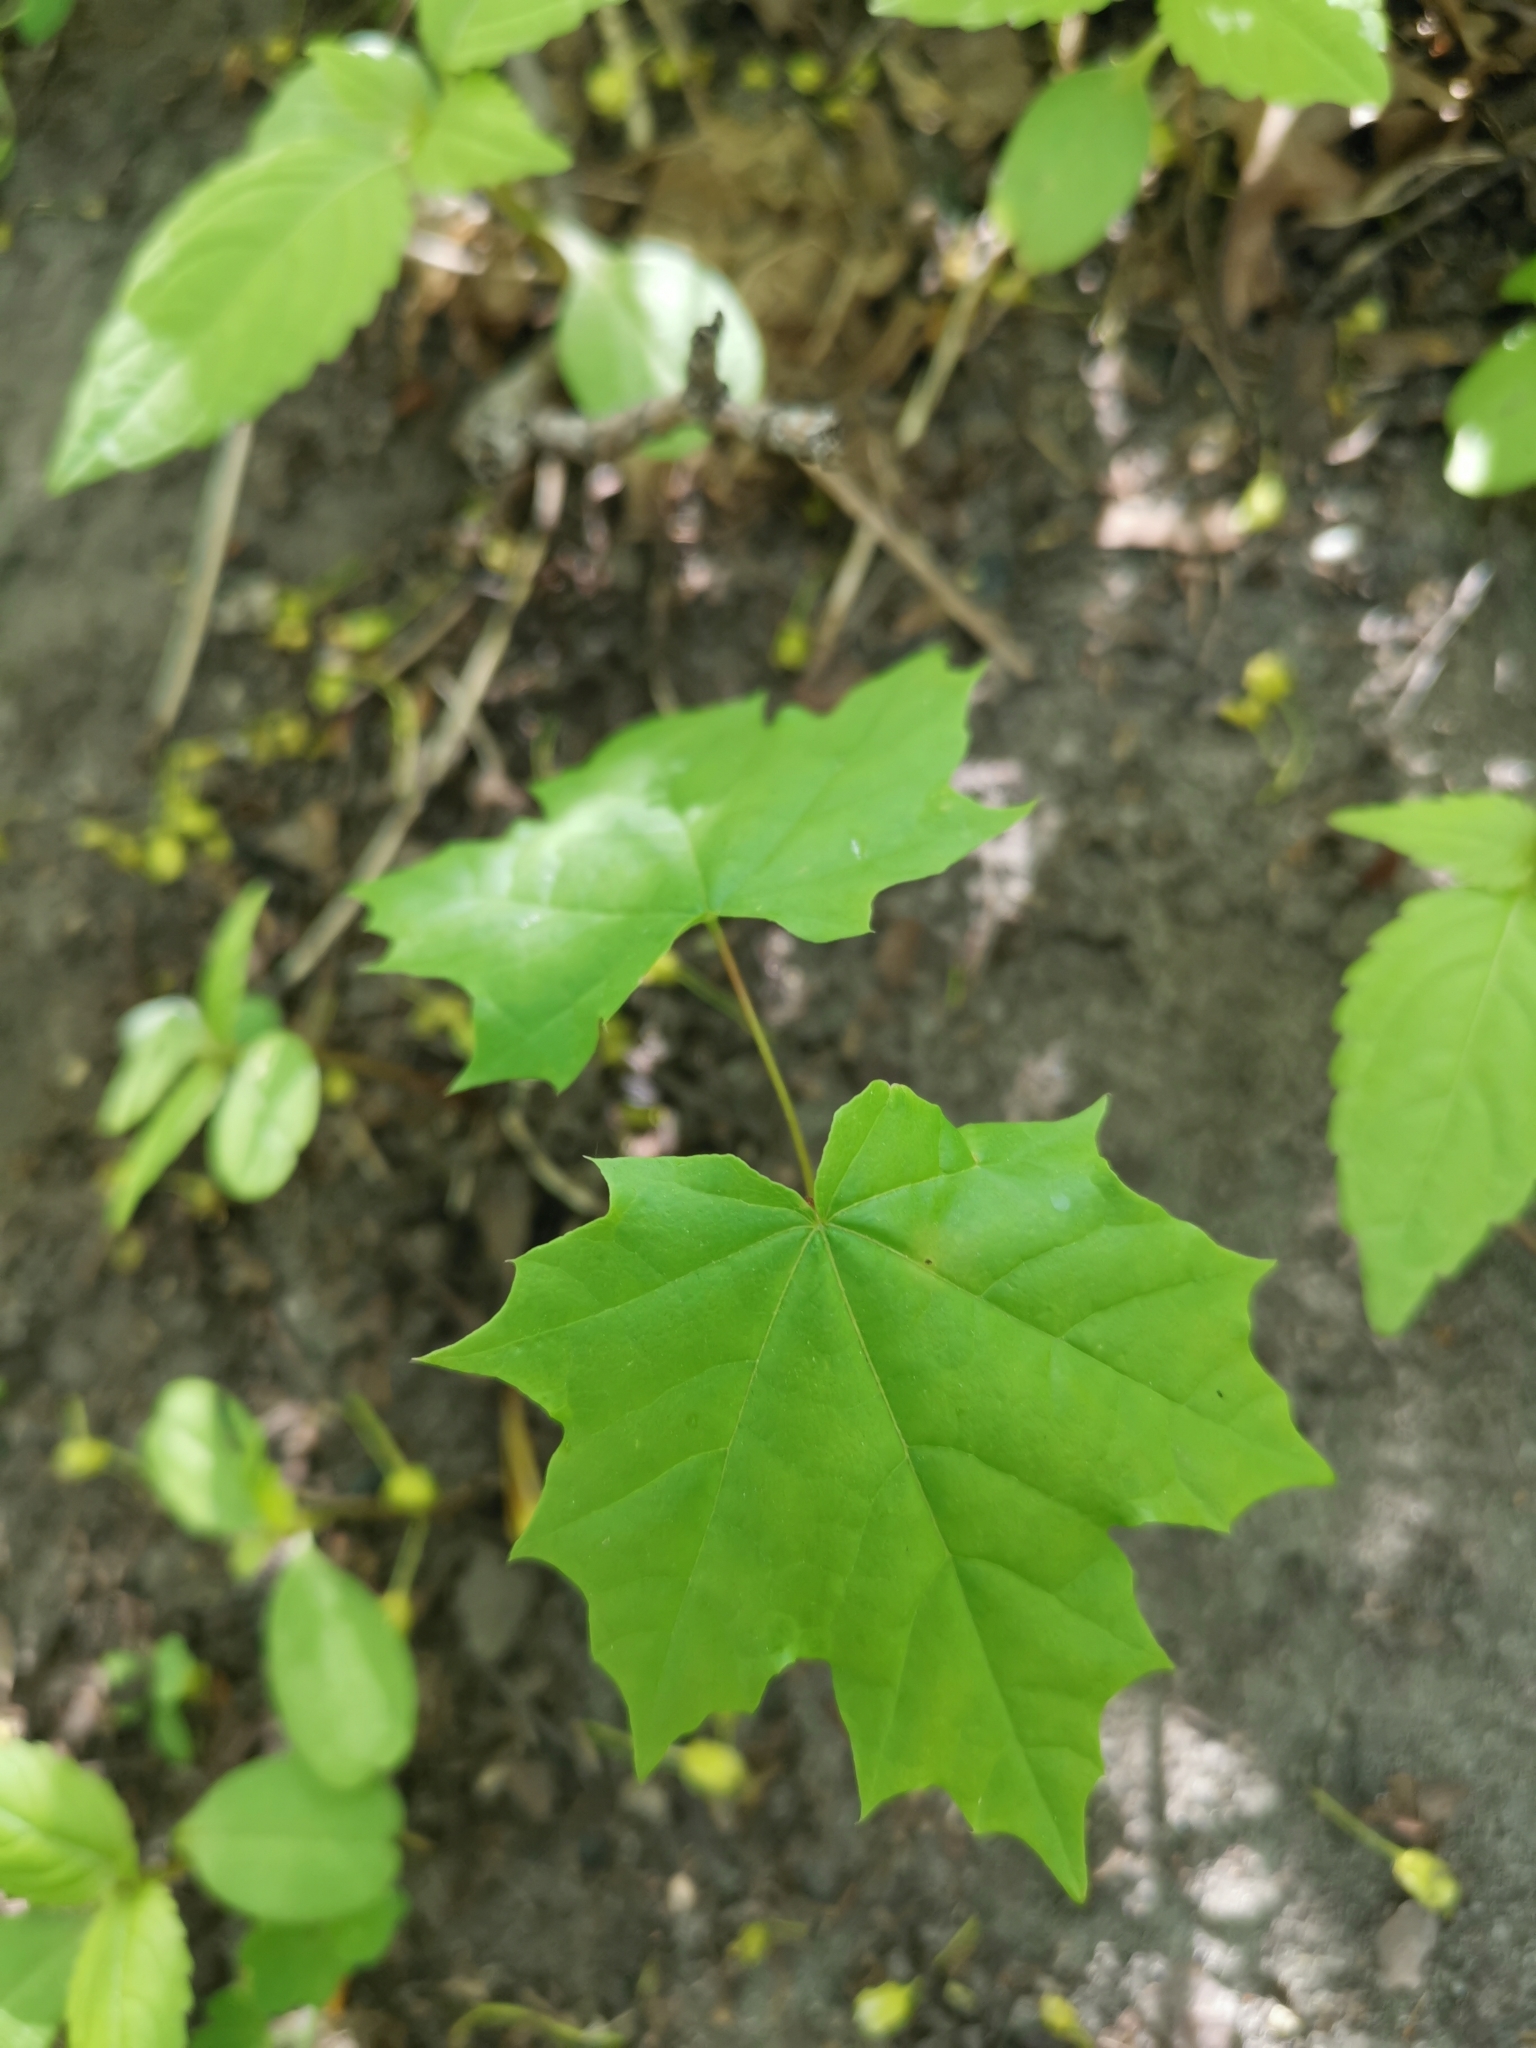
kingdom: Plantae
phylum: Tracheophyta
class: Magnoliopsida
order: Sapindales
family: Sapindaceae
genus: Acer
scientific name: Acer platanoides
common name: Norway maple
